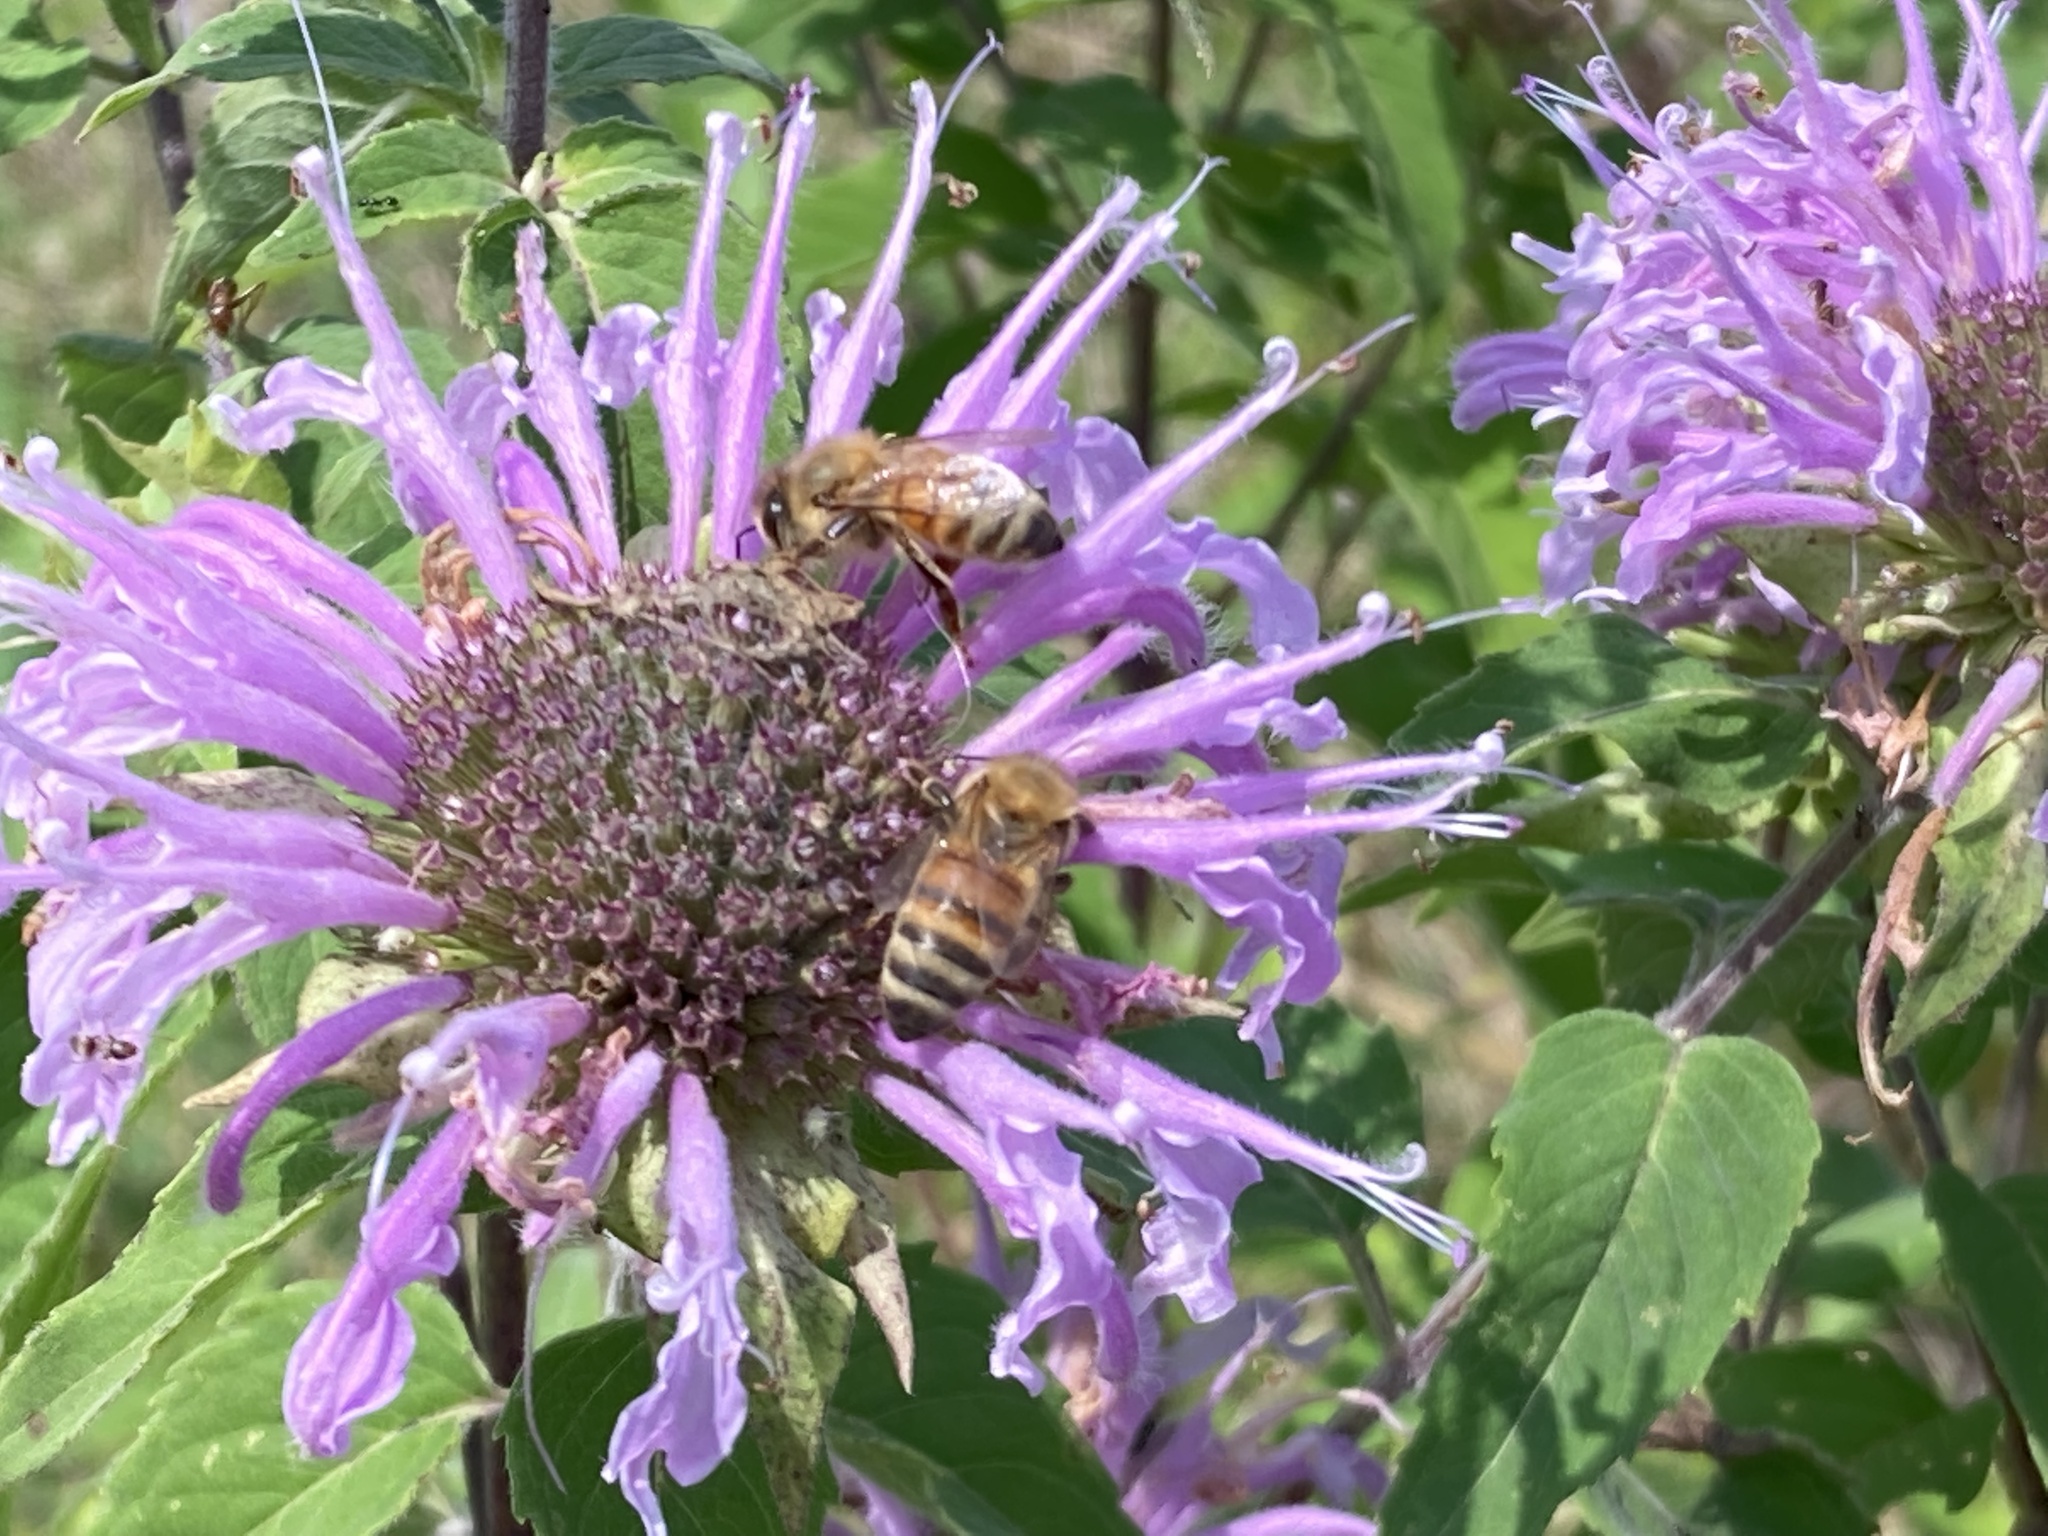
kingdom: Animalia
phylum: Arthropoda
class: Insecta
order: Hymenoptera
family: Apidae
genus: Apis
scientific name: Apis mellifera
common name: Honey bee
